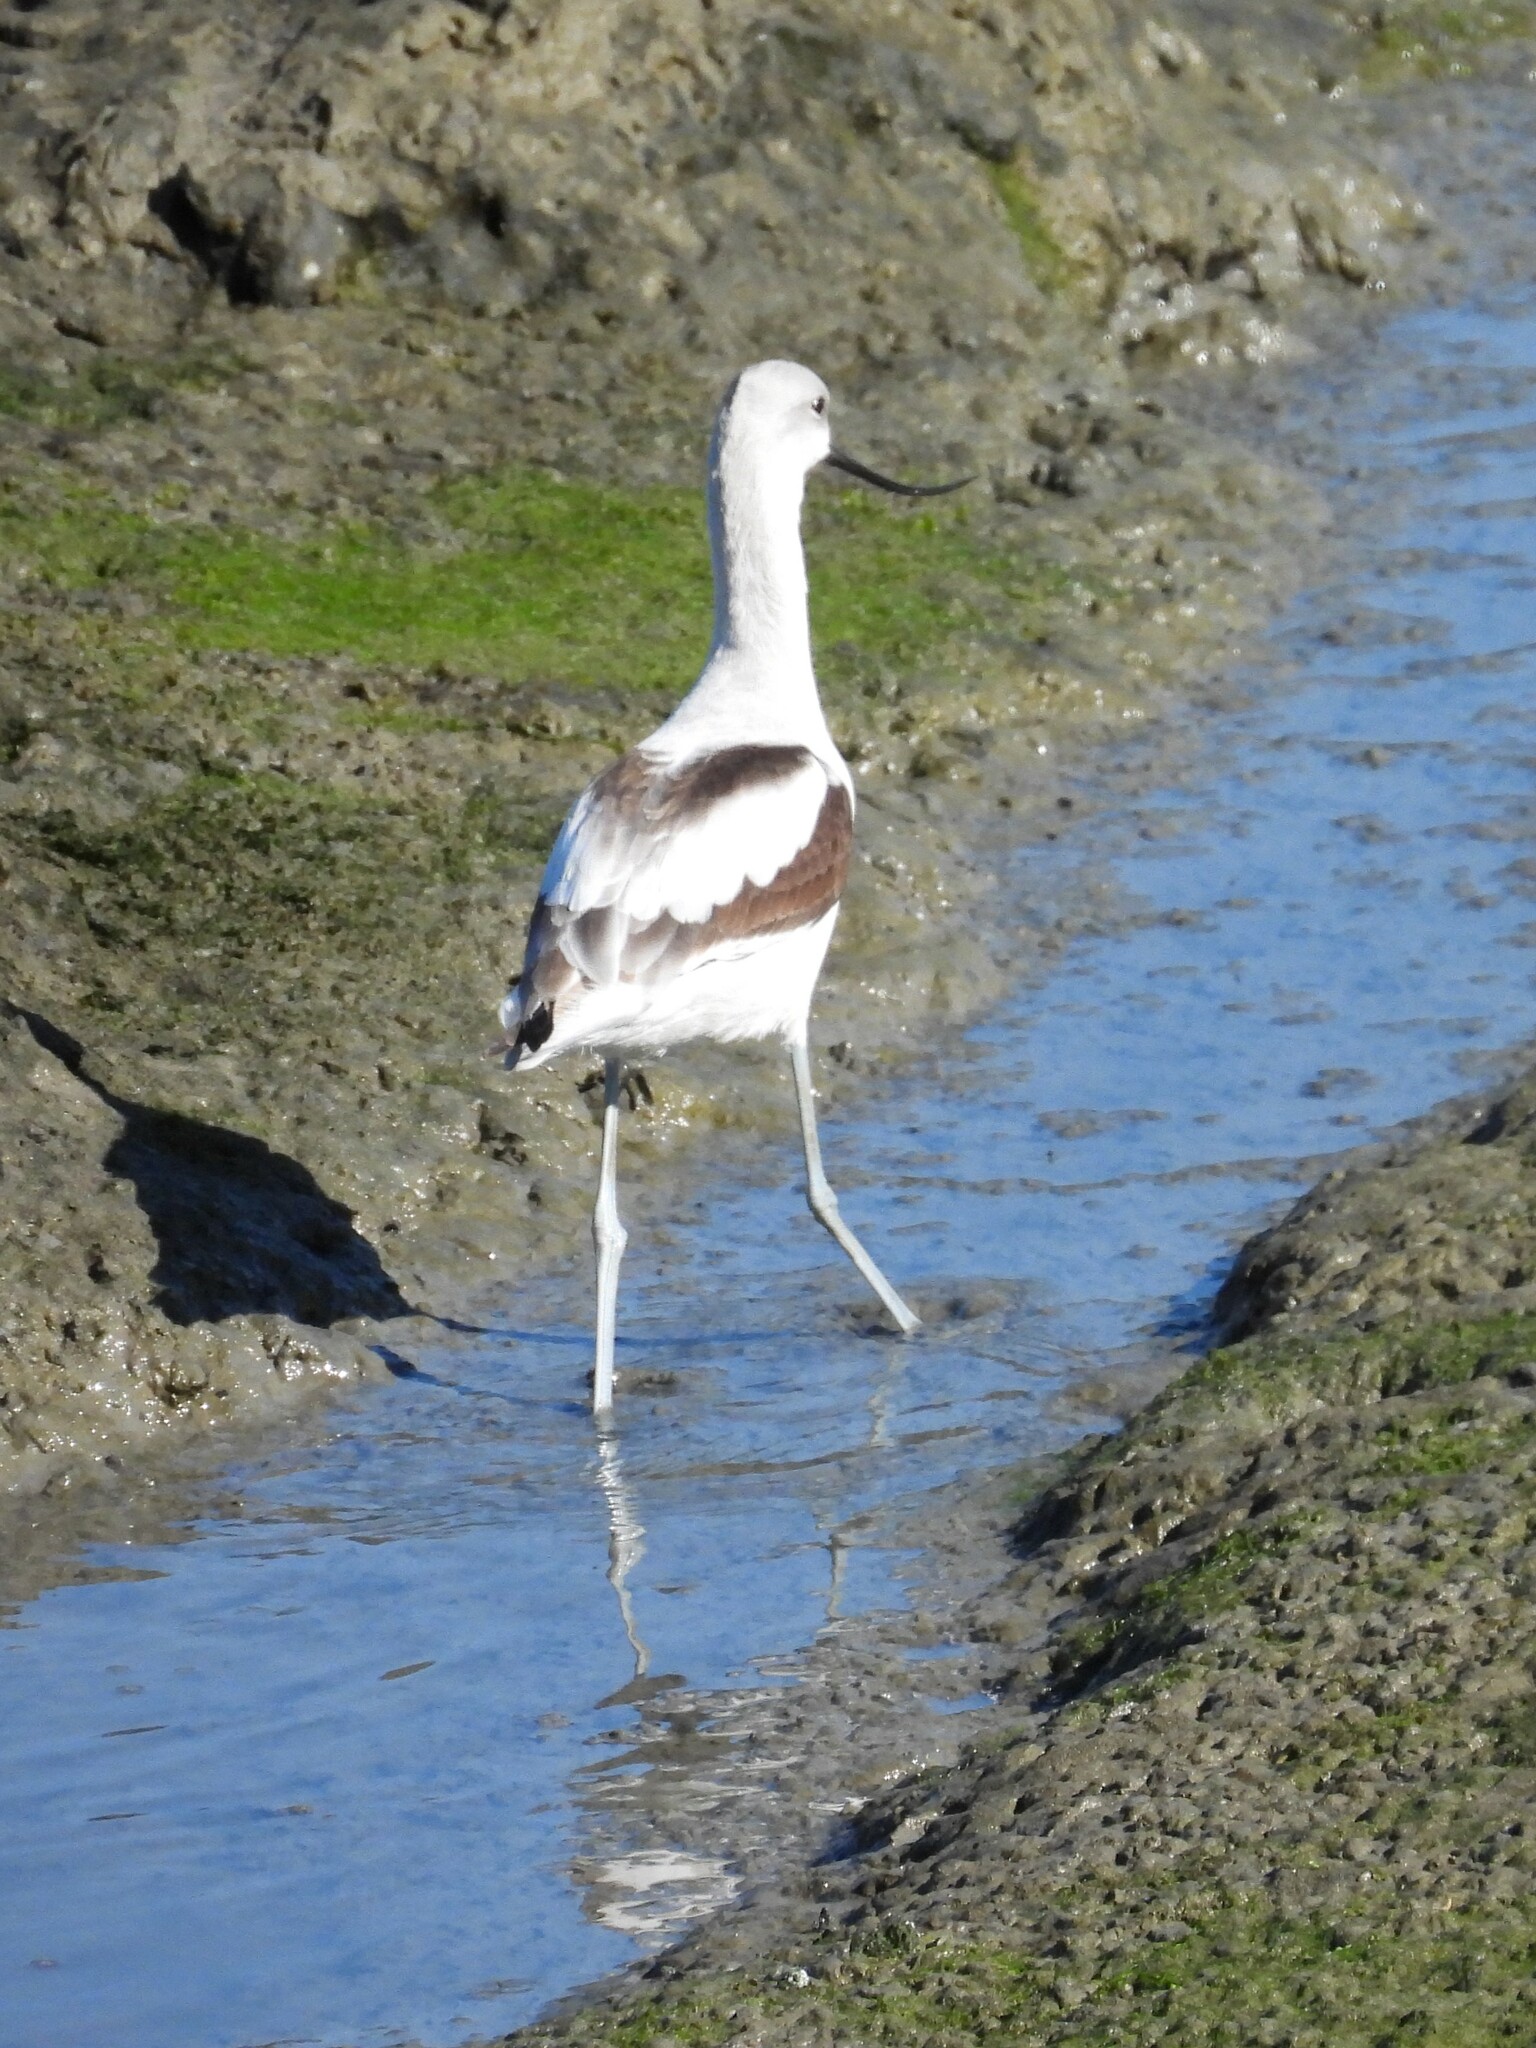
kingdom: Animalia
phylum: Chordata
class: Aves
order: Charadriiformes
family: Recurvirostridae
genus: Recurvirostra
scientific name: Recurvirostra americana
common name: American avocet
